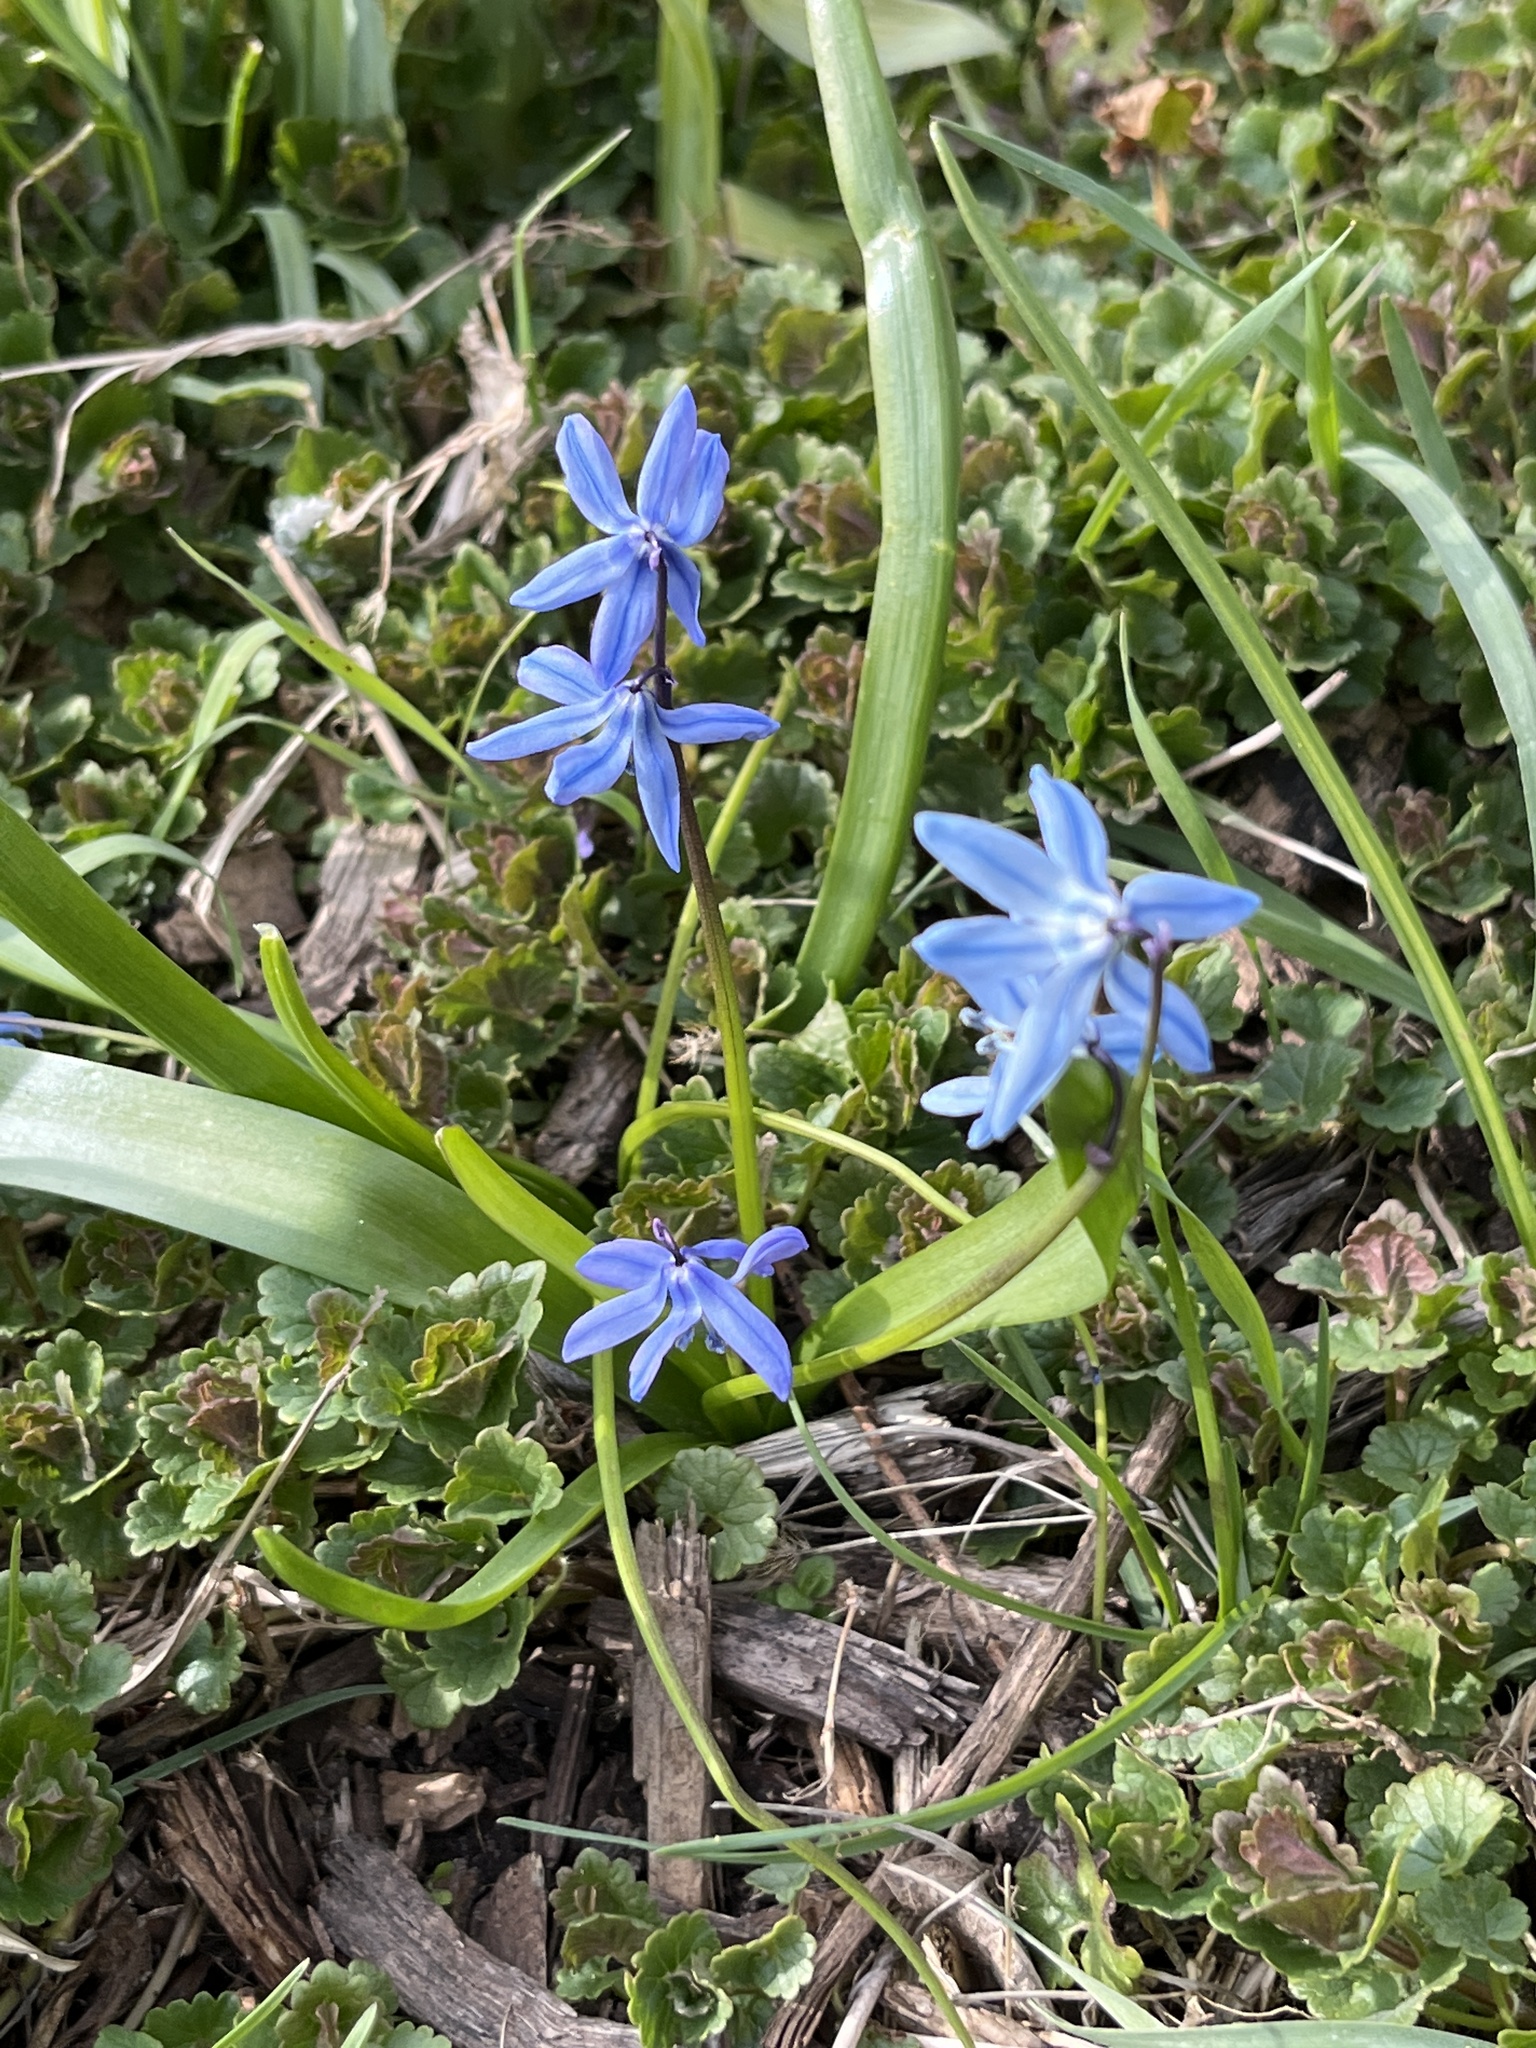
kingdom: Plantae
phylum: Tracheophyta
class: Liliopsida
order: Asparagales
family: Asparagaceae
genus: Scilla
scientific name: Scilla siberica
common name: Siberian squill
